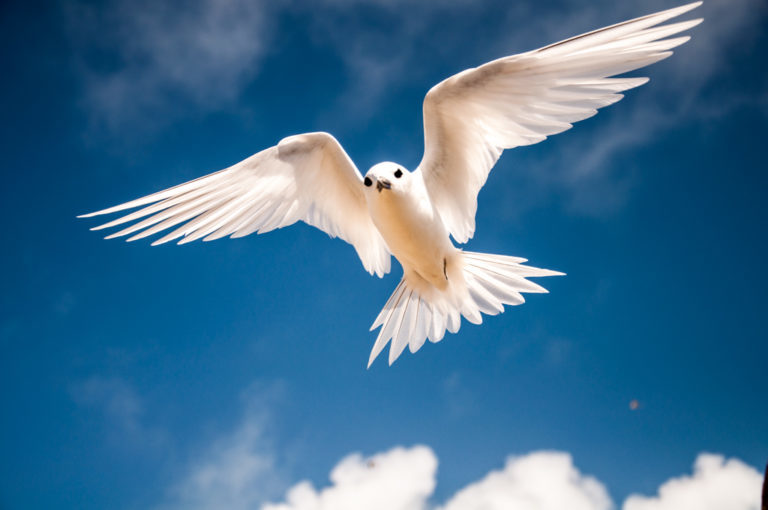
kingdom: Animalia
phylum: Chordata
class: Aves
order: Charadriiformes
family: Laridae
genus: Gygis
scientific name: Gygis alba
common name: White tern
